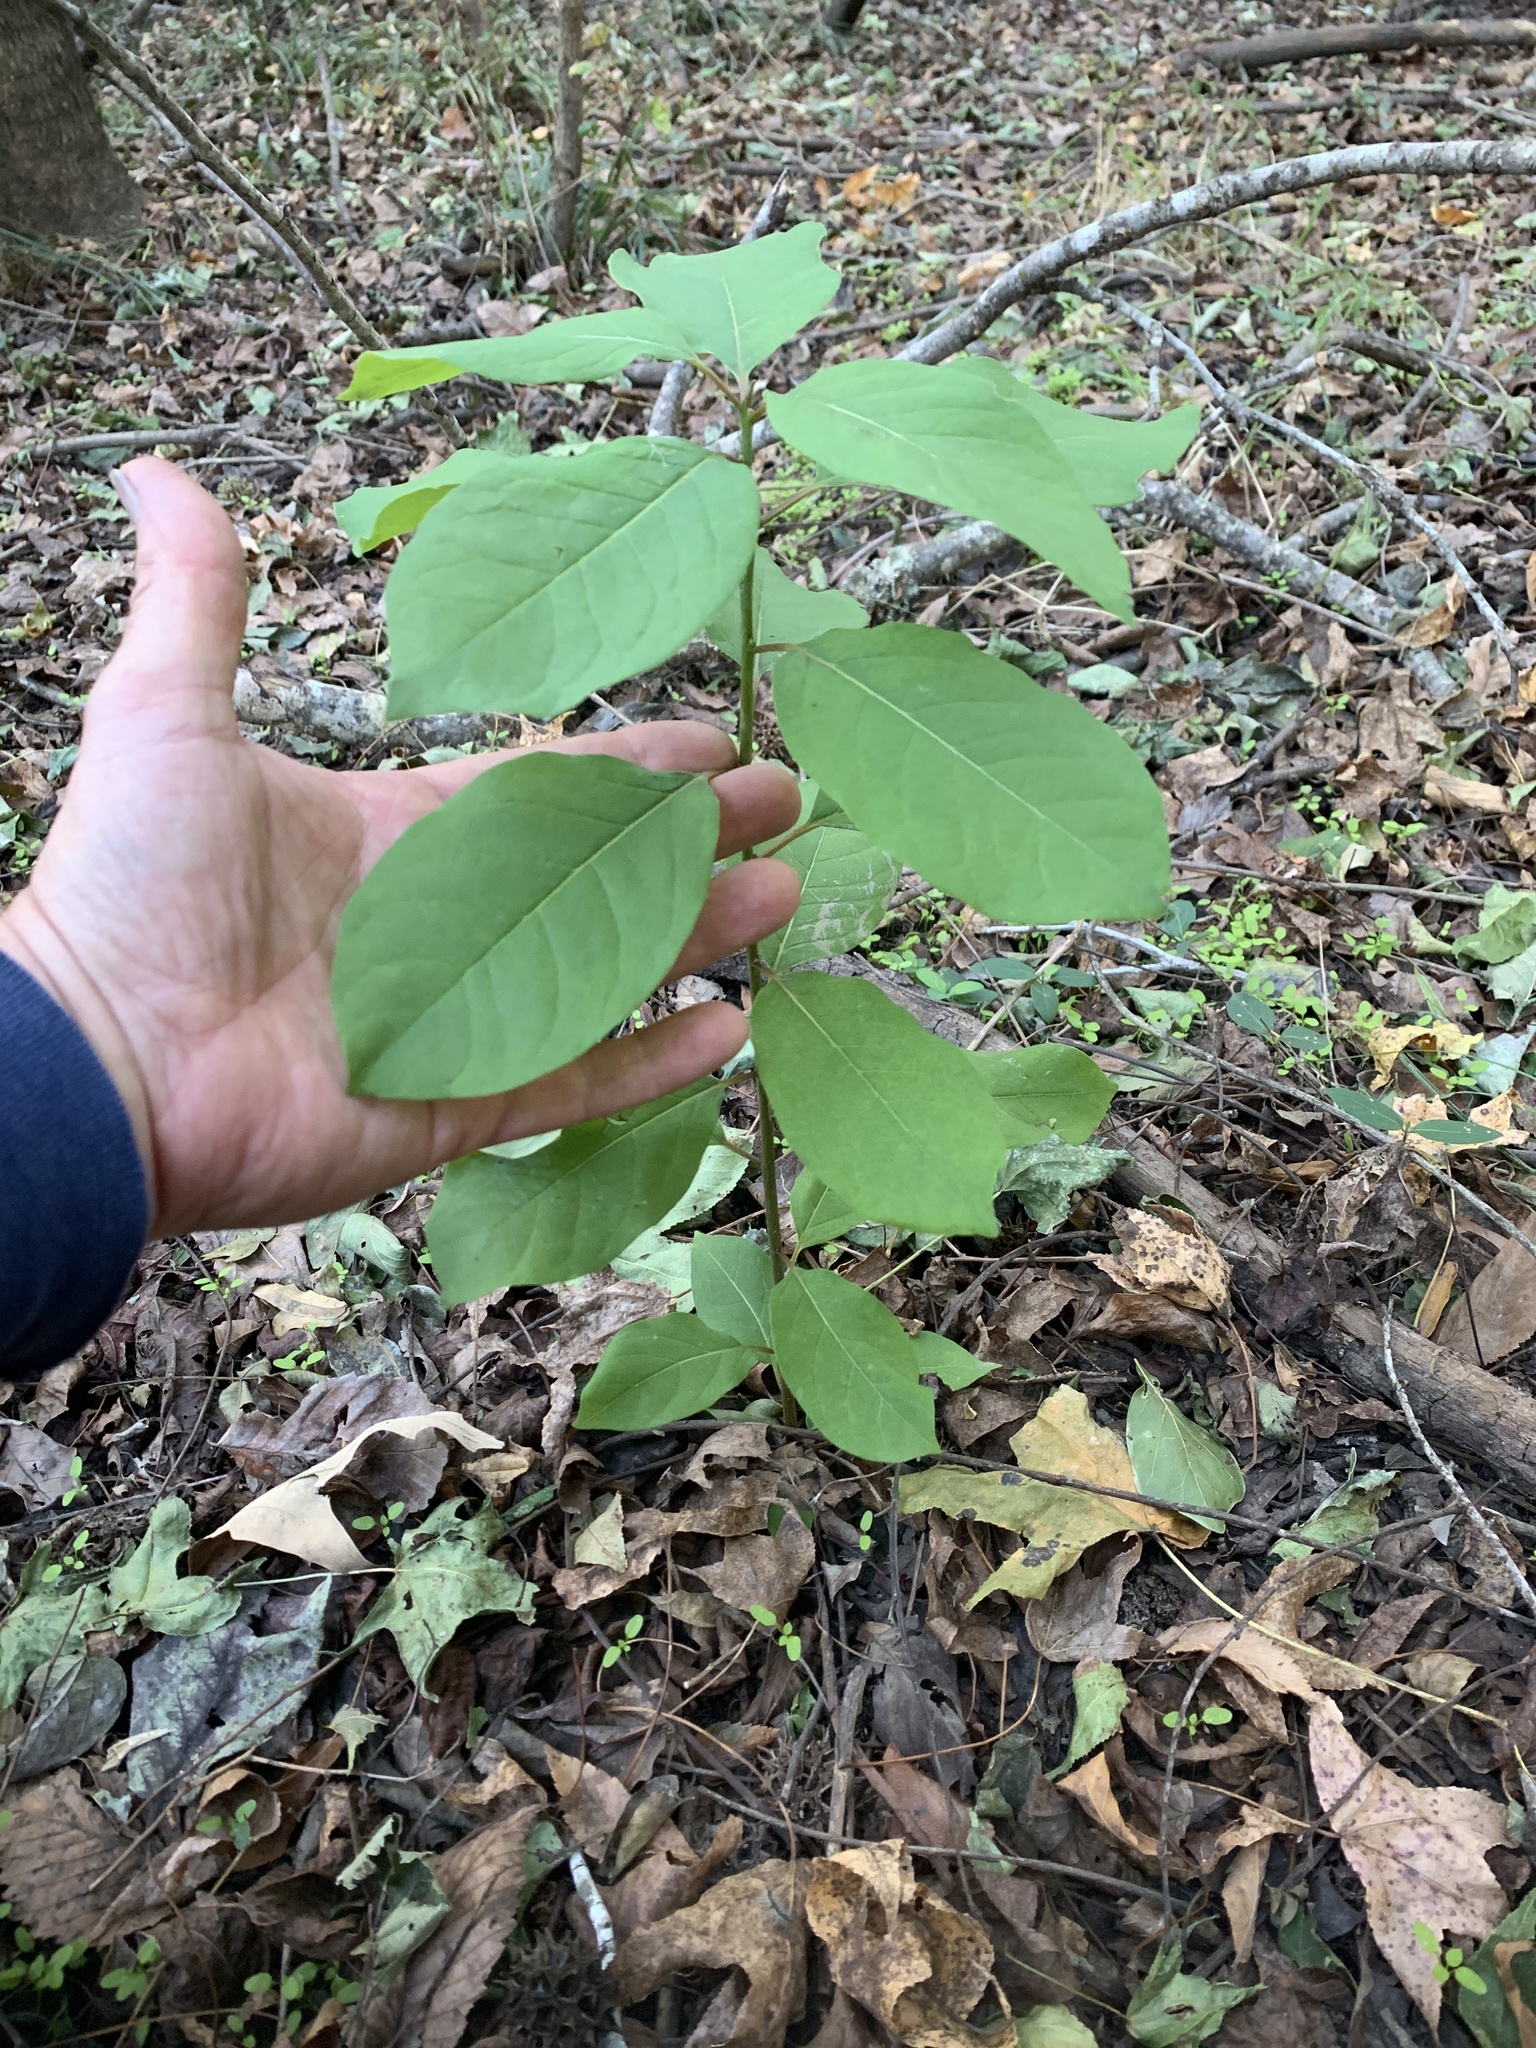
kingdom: Plantae
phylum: Tracheophyta
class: Magnoliopsida
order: Ericales
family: Ebenaceae
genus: Diospyros
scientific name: Diospyros virginiana
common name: Persimmon
